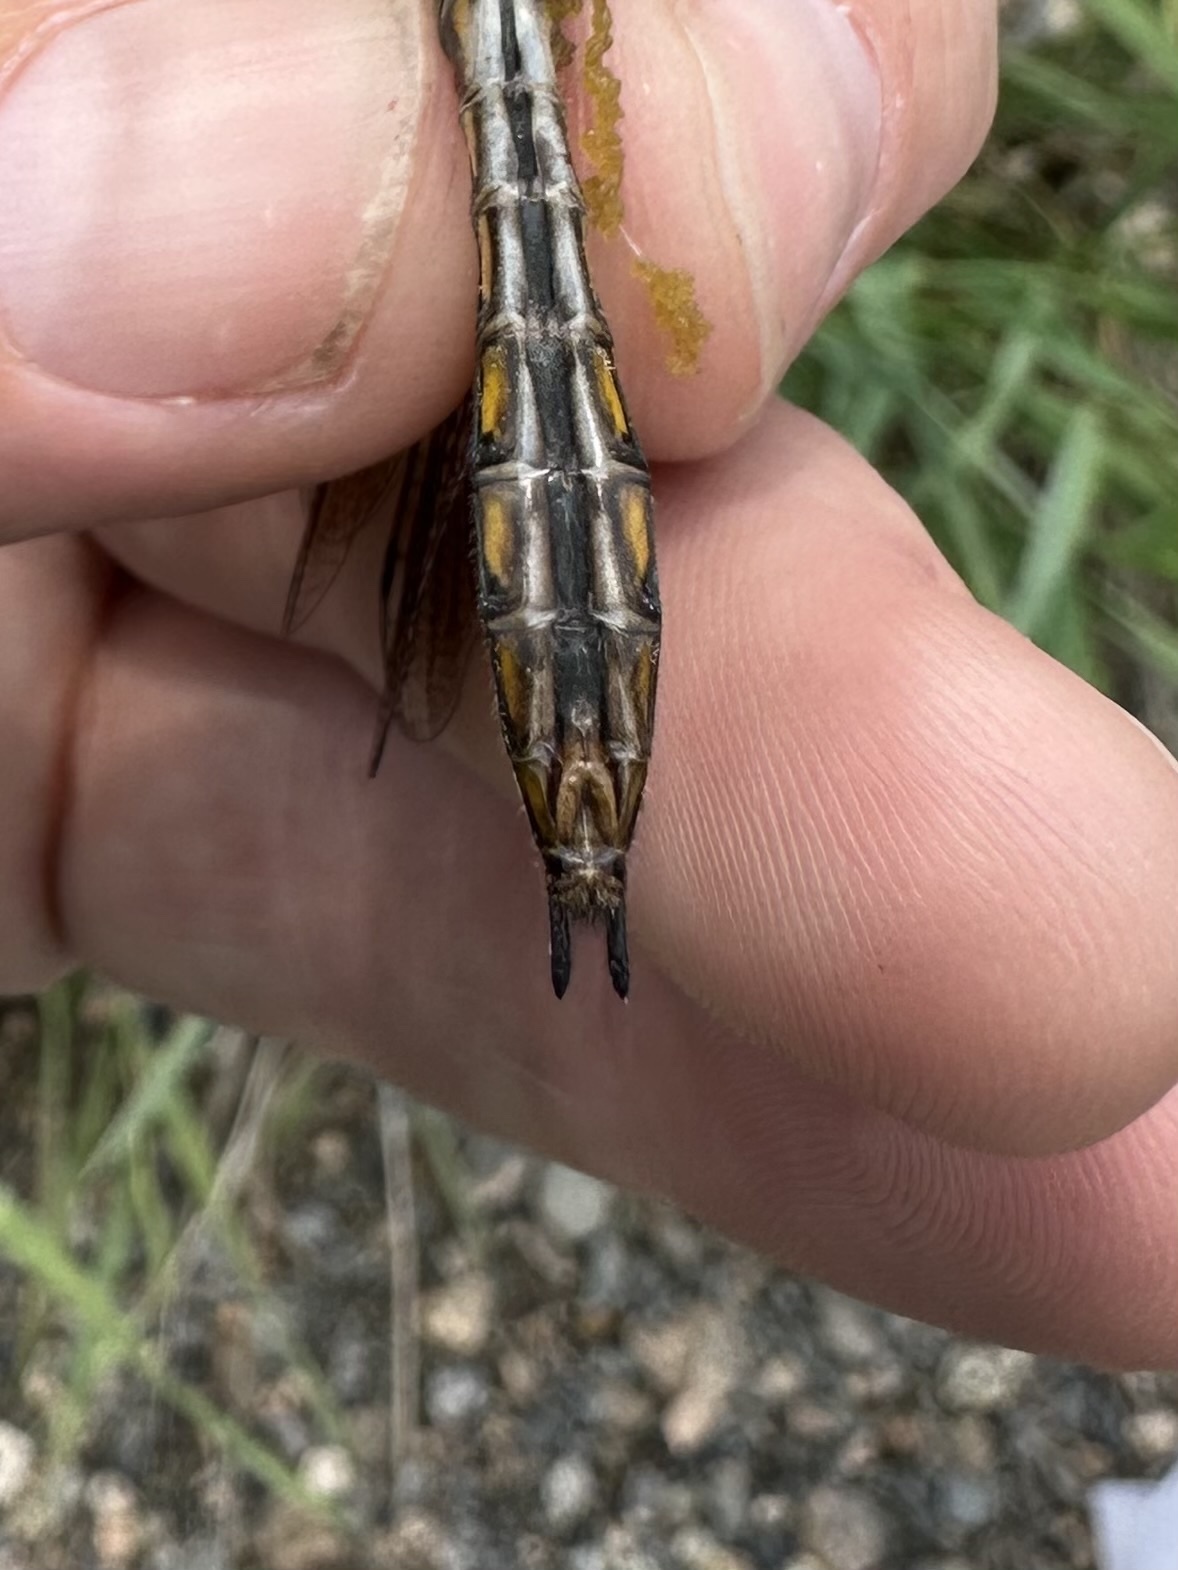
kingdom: Animalia
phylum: Arthropoda
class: Insecta
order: Odonata
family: Corduliidae
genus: Epitheca
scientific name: Epitheca canis
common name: Beaverpond baskettail
